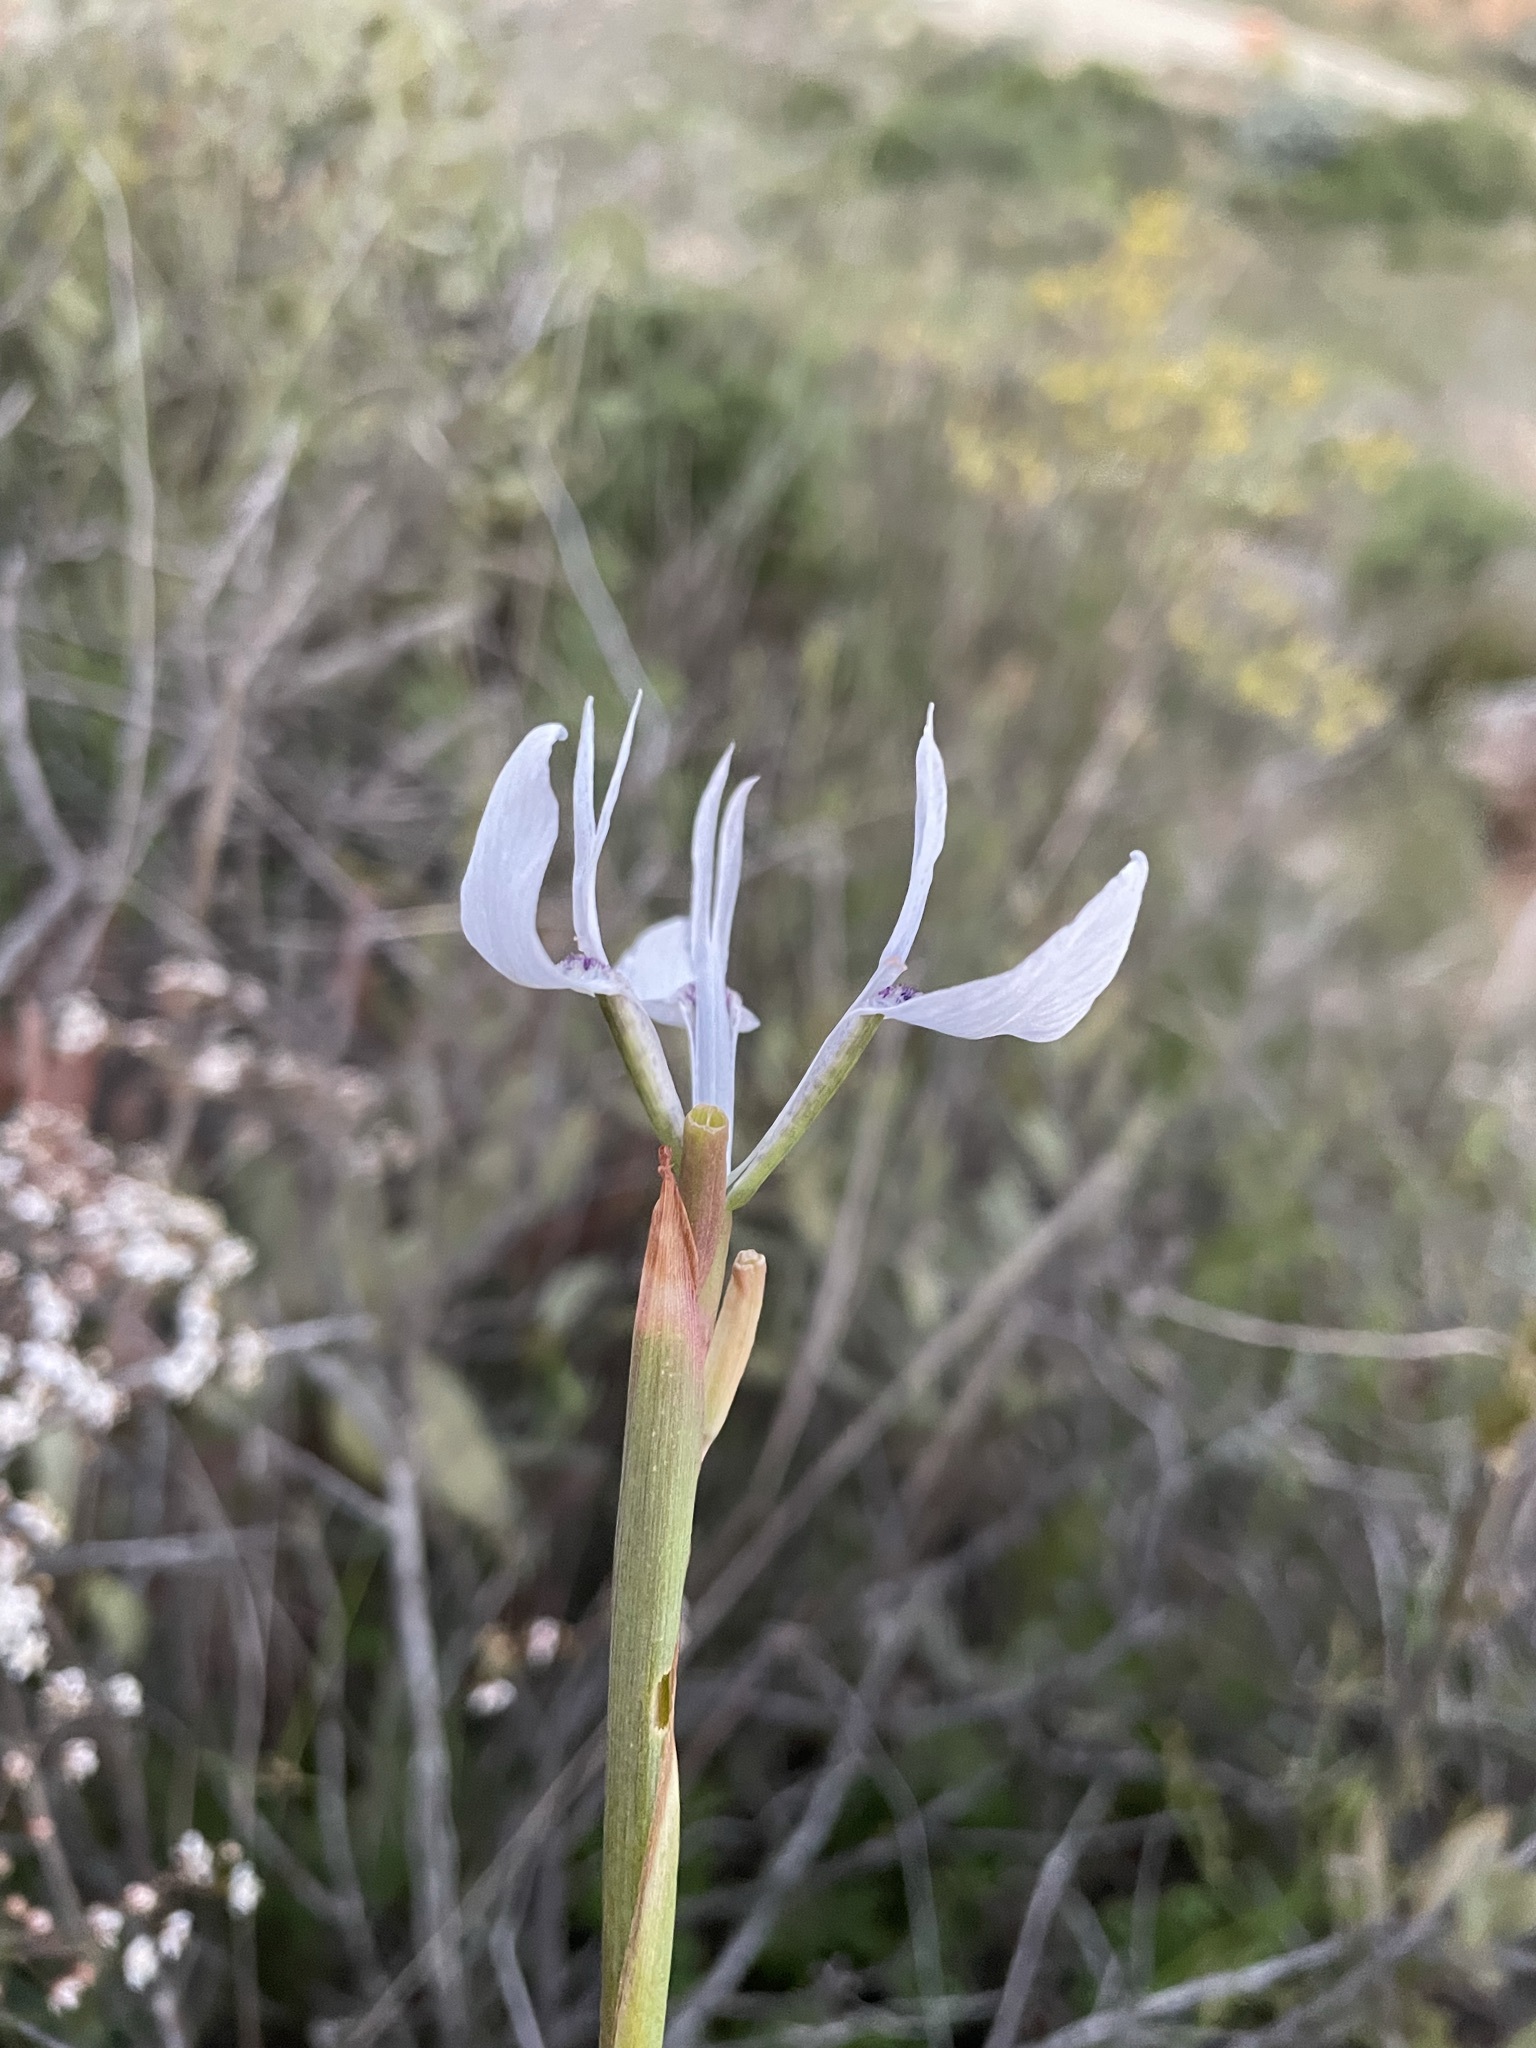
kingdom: Plantae
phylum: Tracheophyta
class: Liliopsida
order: Asparagales
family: Iridaceae
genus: Moraea
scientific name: Moraea tripetala
